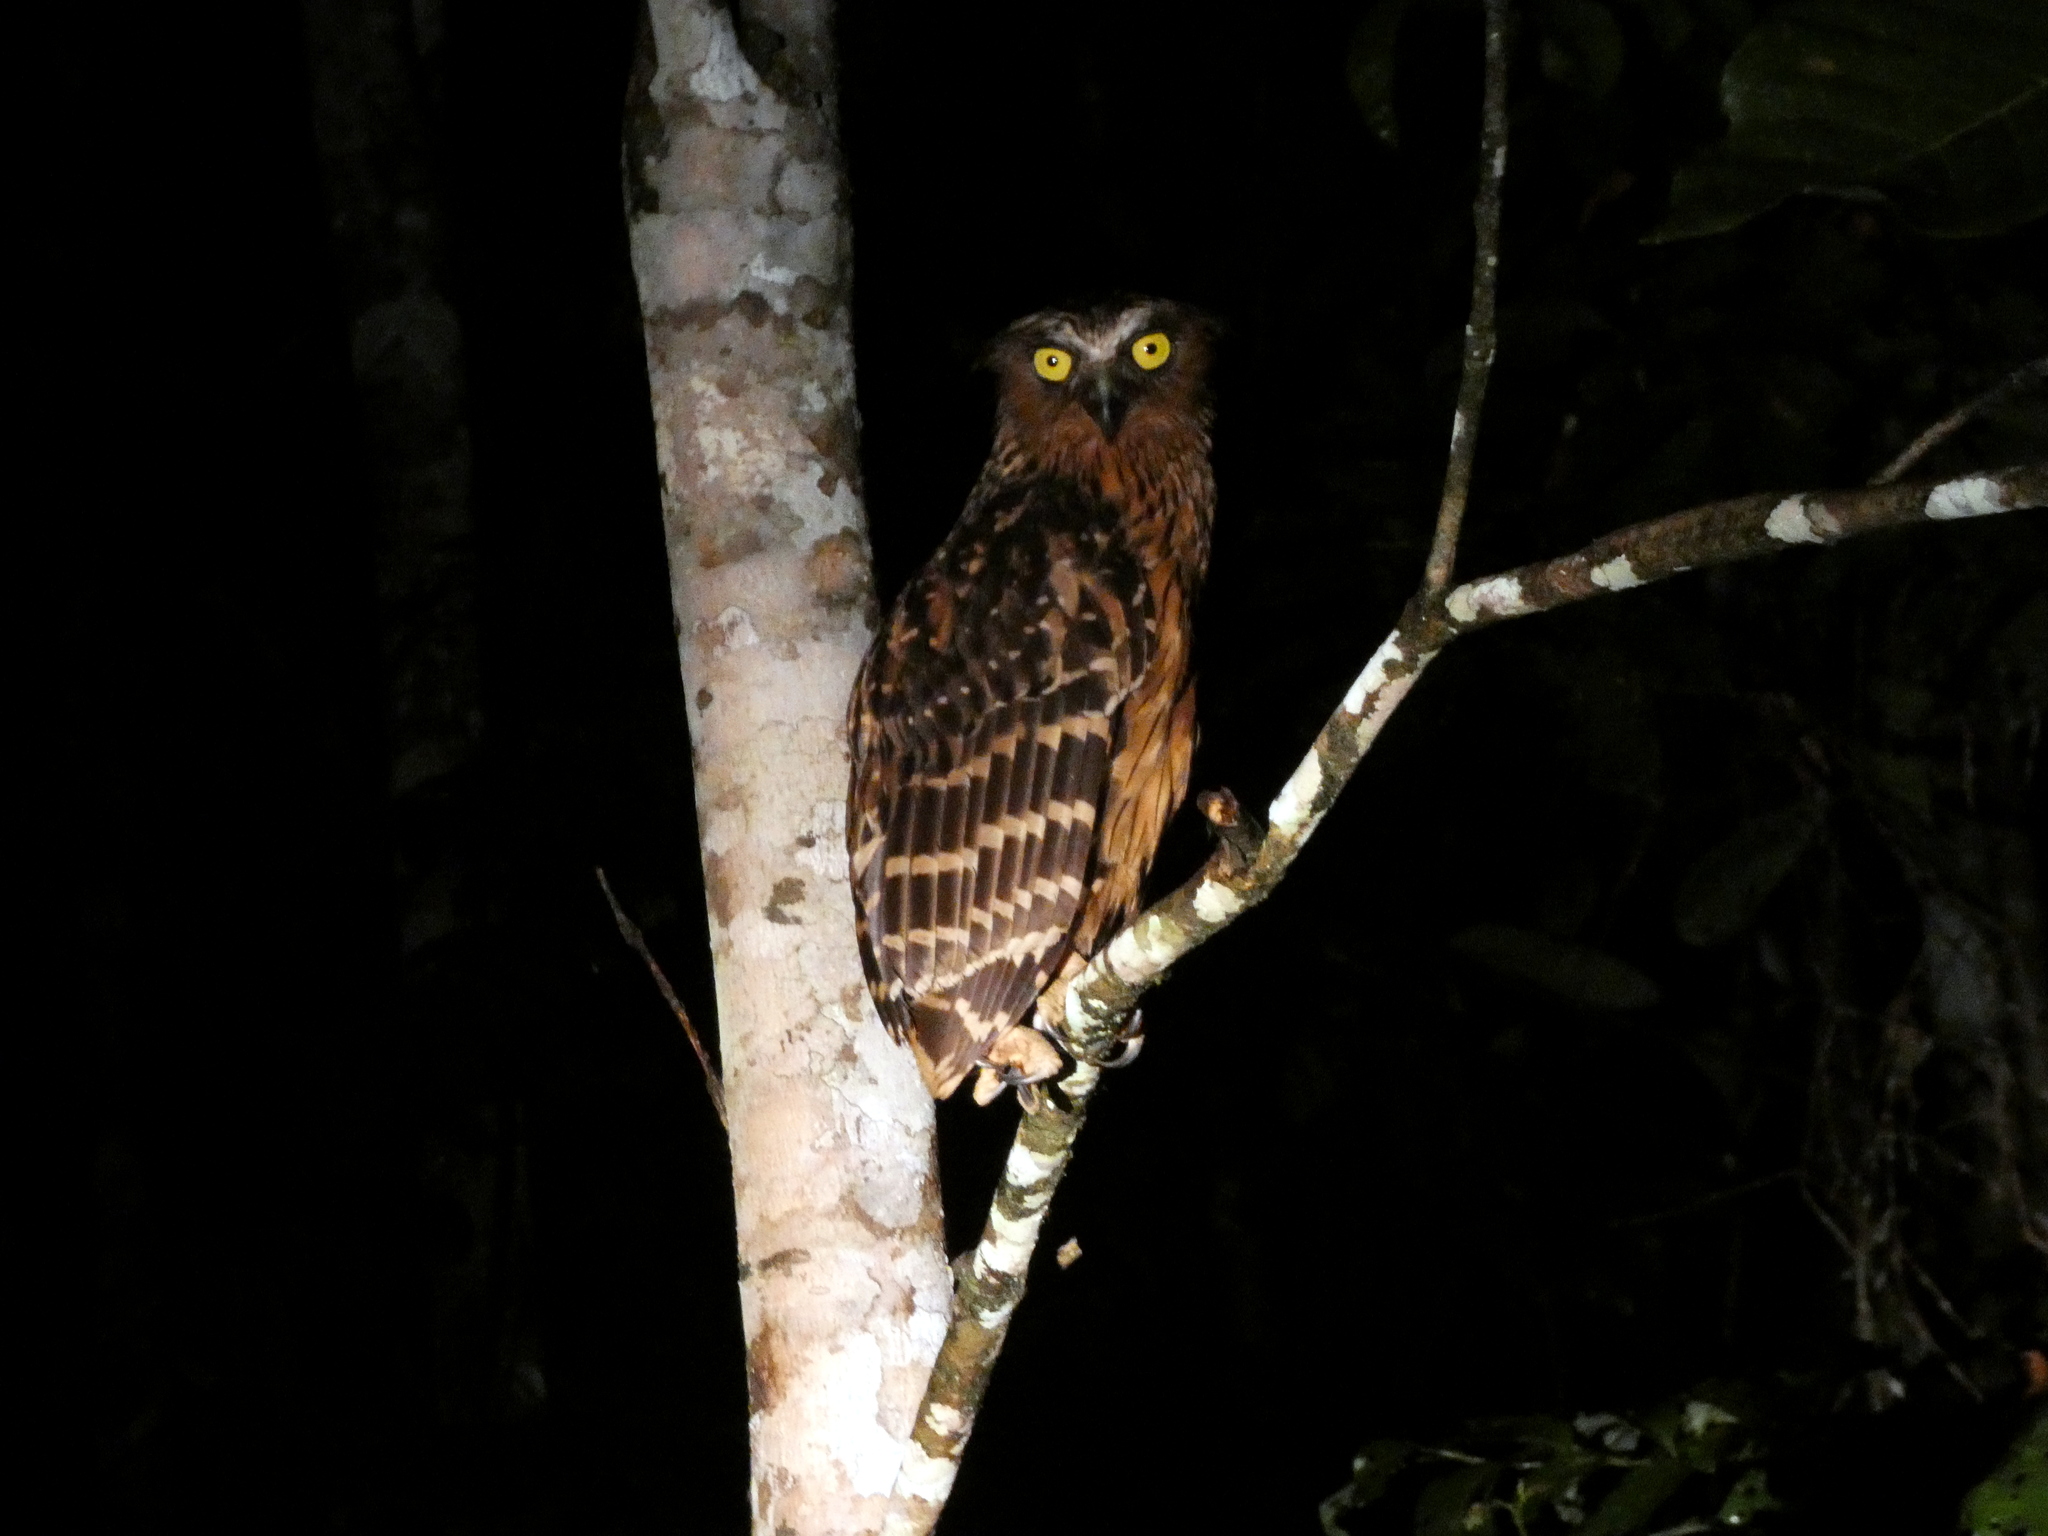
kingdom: Animalia
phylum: Chordata
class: Aves
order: Strigiformes
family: Strigidae
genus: Ketupa
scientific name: Ketupa ketupu
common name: Buffy fish-owl
